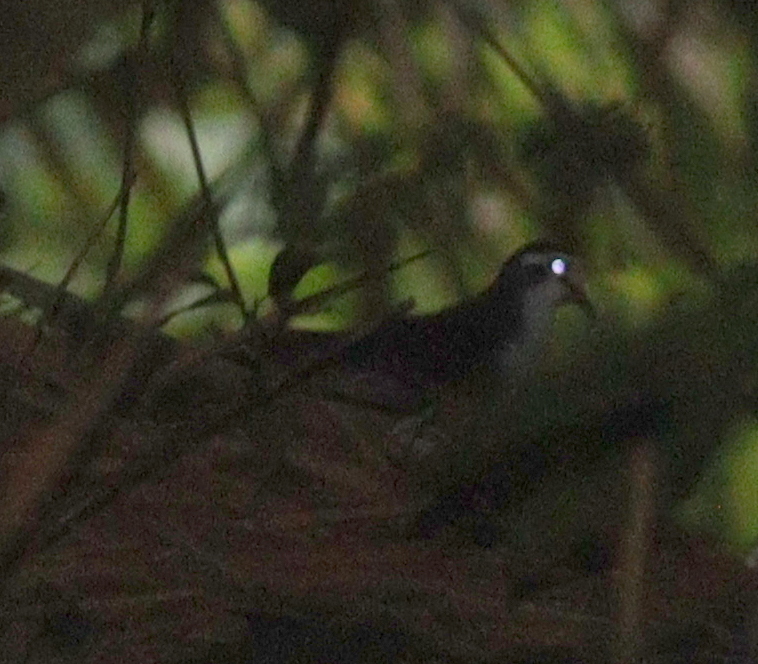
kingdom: Animalia
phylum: Chordata
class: Aves
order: Columbiformes
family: Columbidae
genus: Turtur
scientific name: Turtur tympanistria
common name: Tambourine dove
